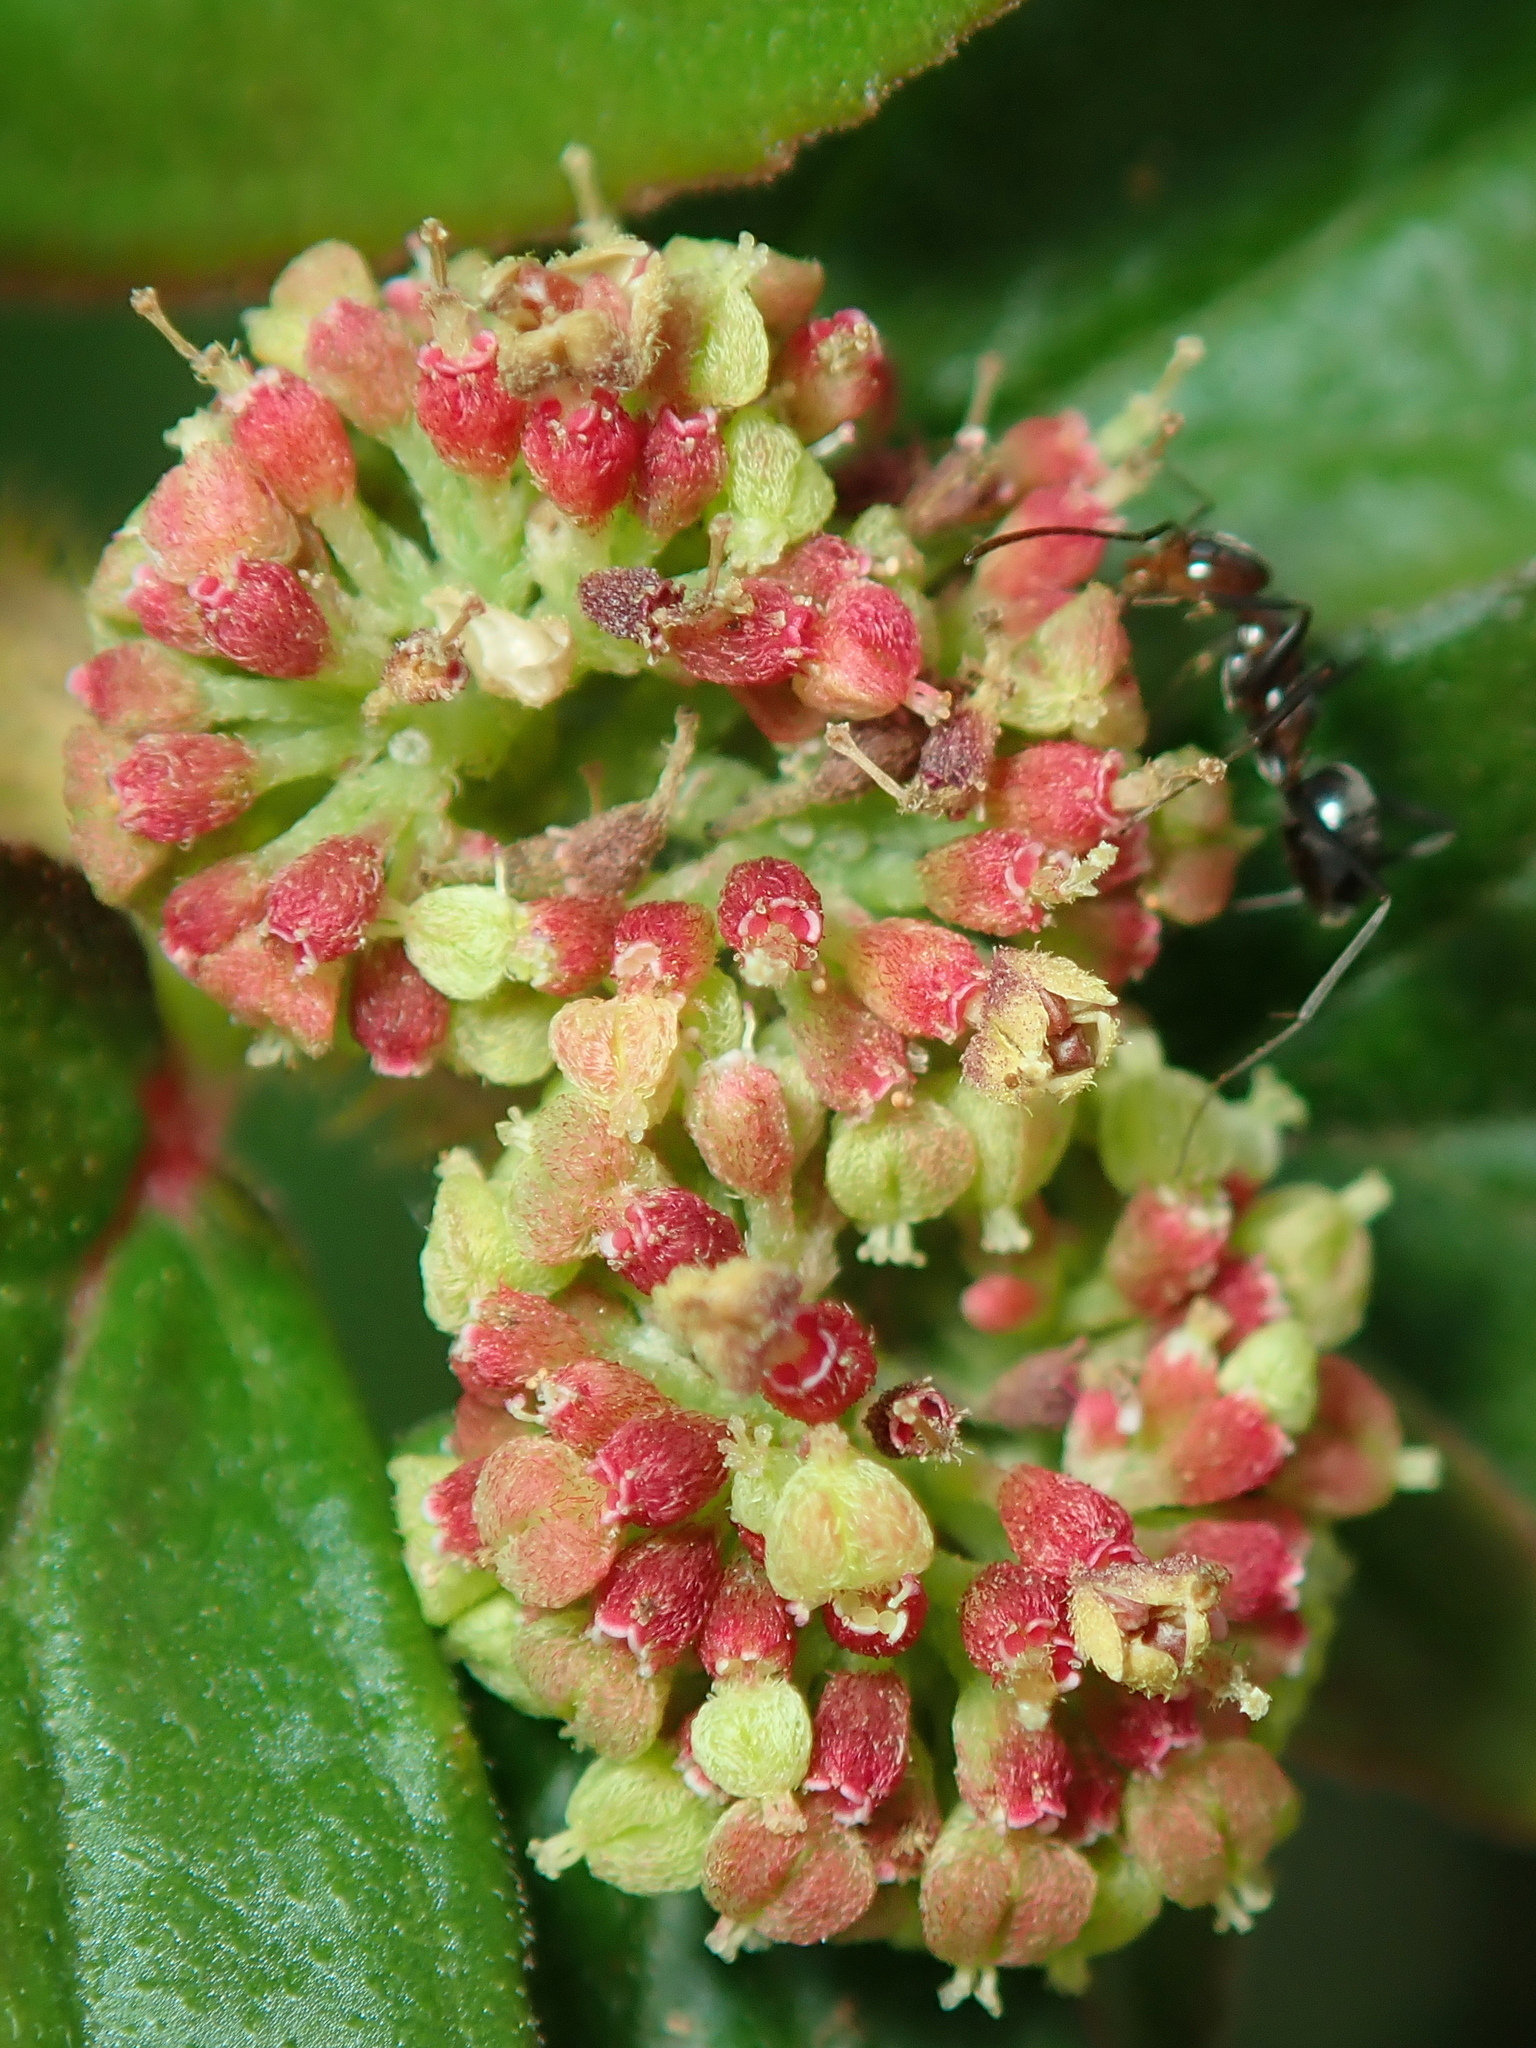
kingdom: Plantae
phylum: Tracheophyta
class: Magnoliopsida
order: Malpighiales
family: Euphorbiaceae
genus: Euphorbia
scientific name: Euphorbia hirta
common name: Pillpod sandmat
